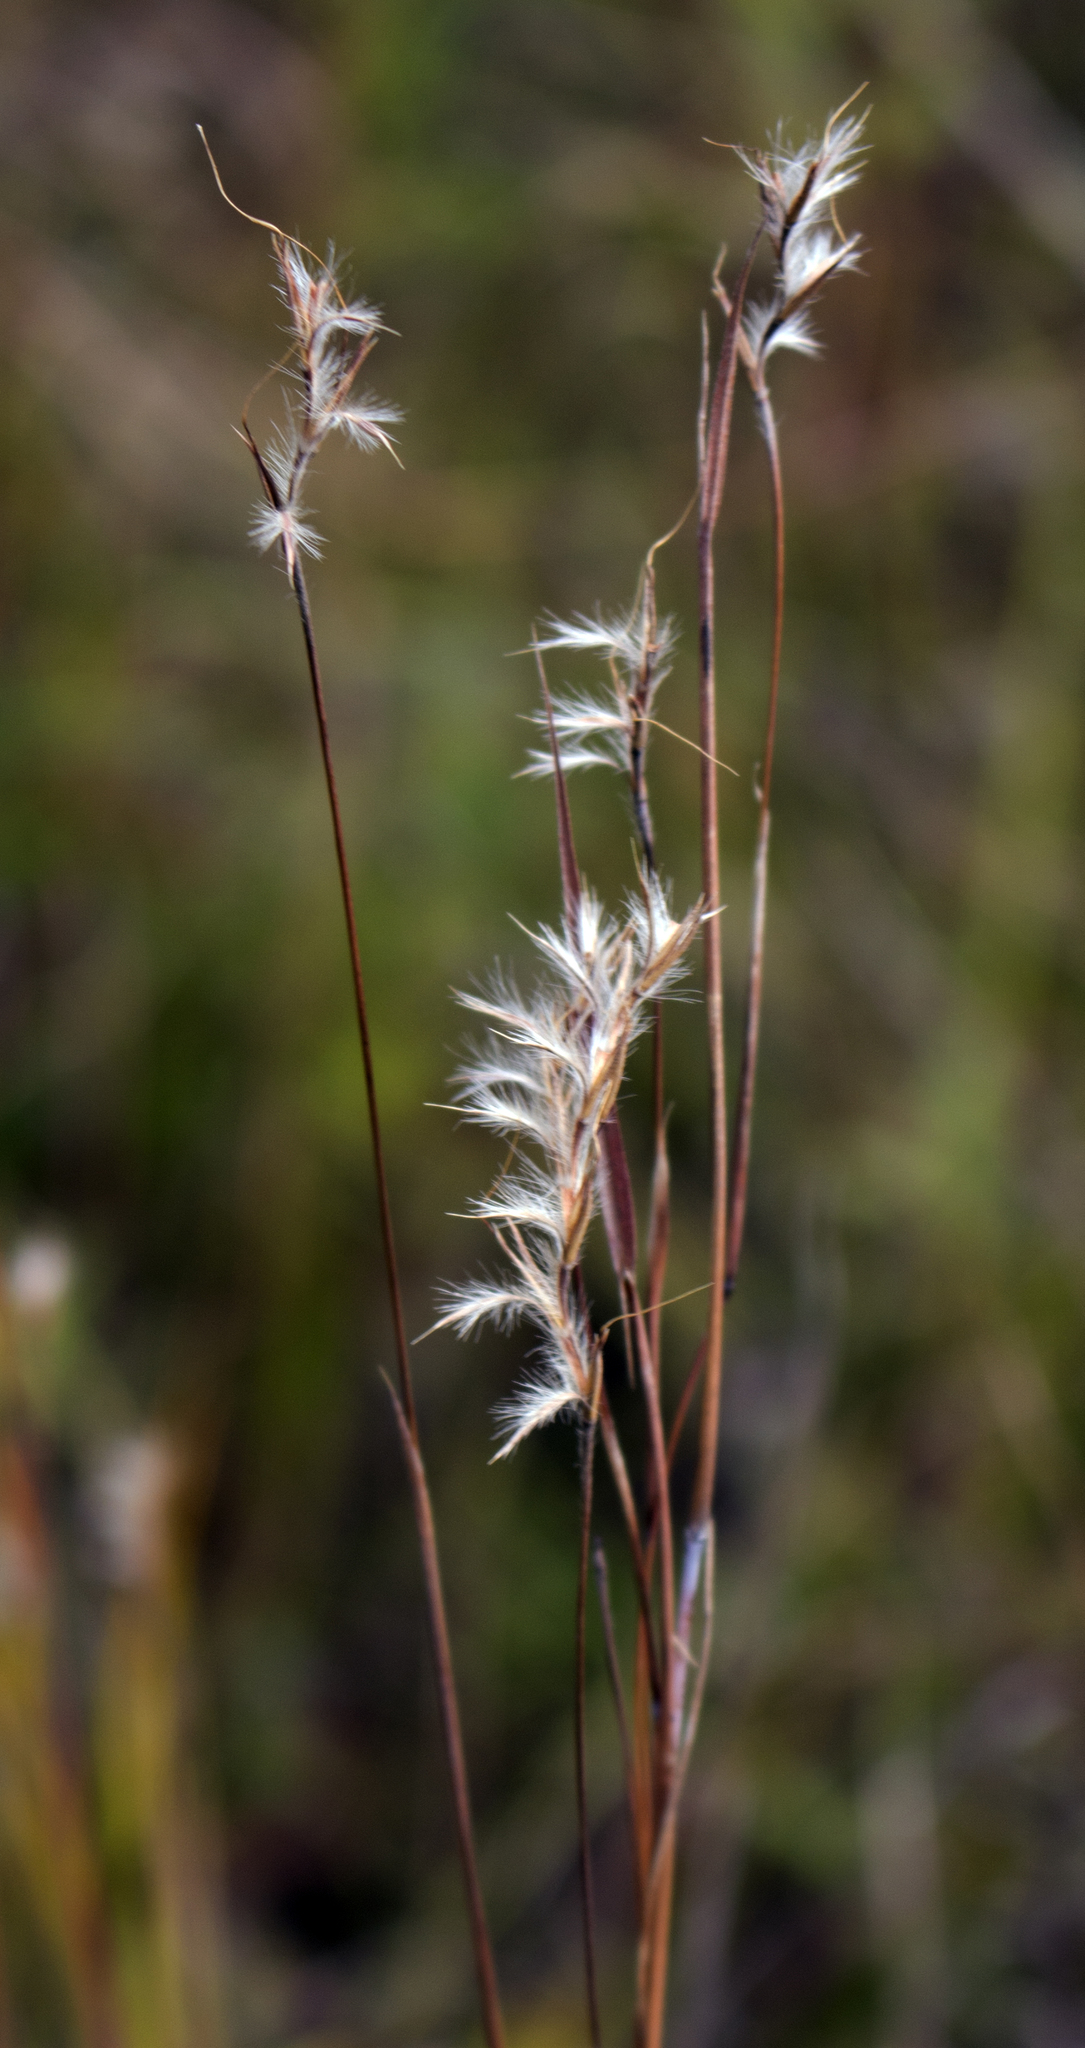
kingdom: Plantae
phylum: Tracheophyta
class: Liliopsida
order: Poales
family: Poaceae
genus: Schizachyrium
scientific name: Schizachyrium scoparium
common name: Little bluestem
